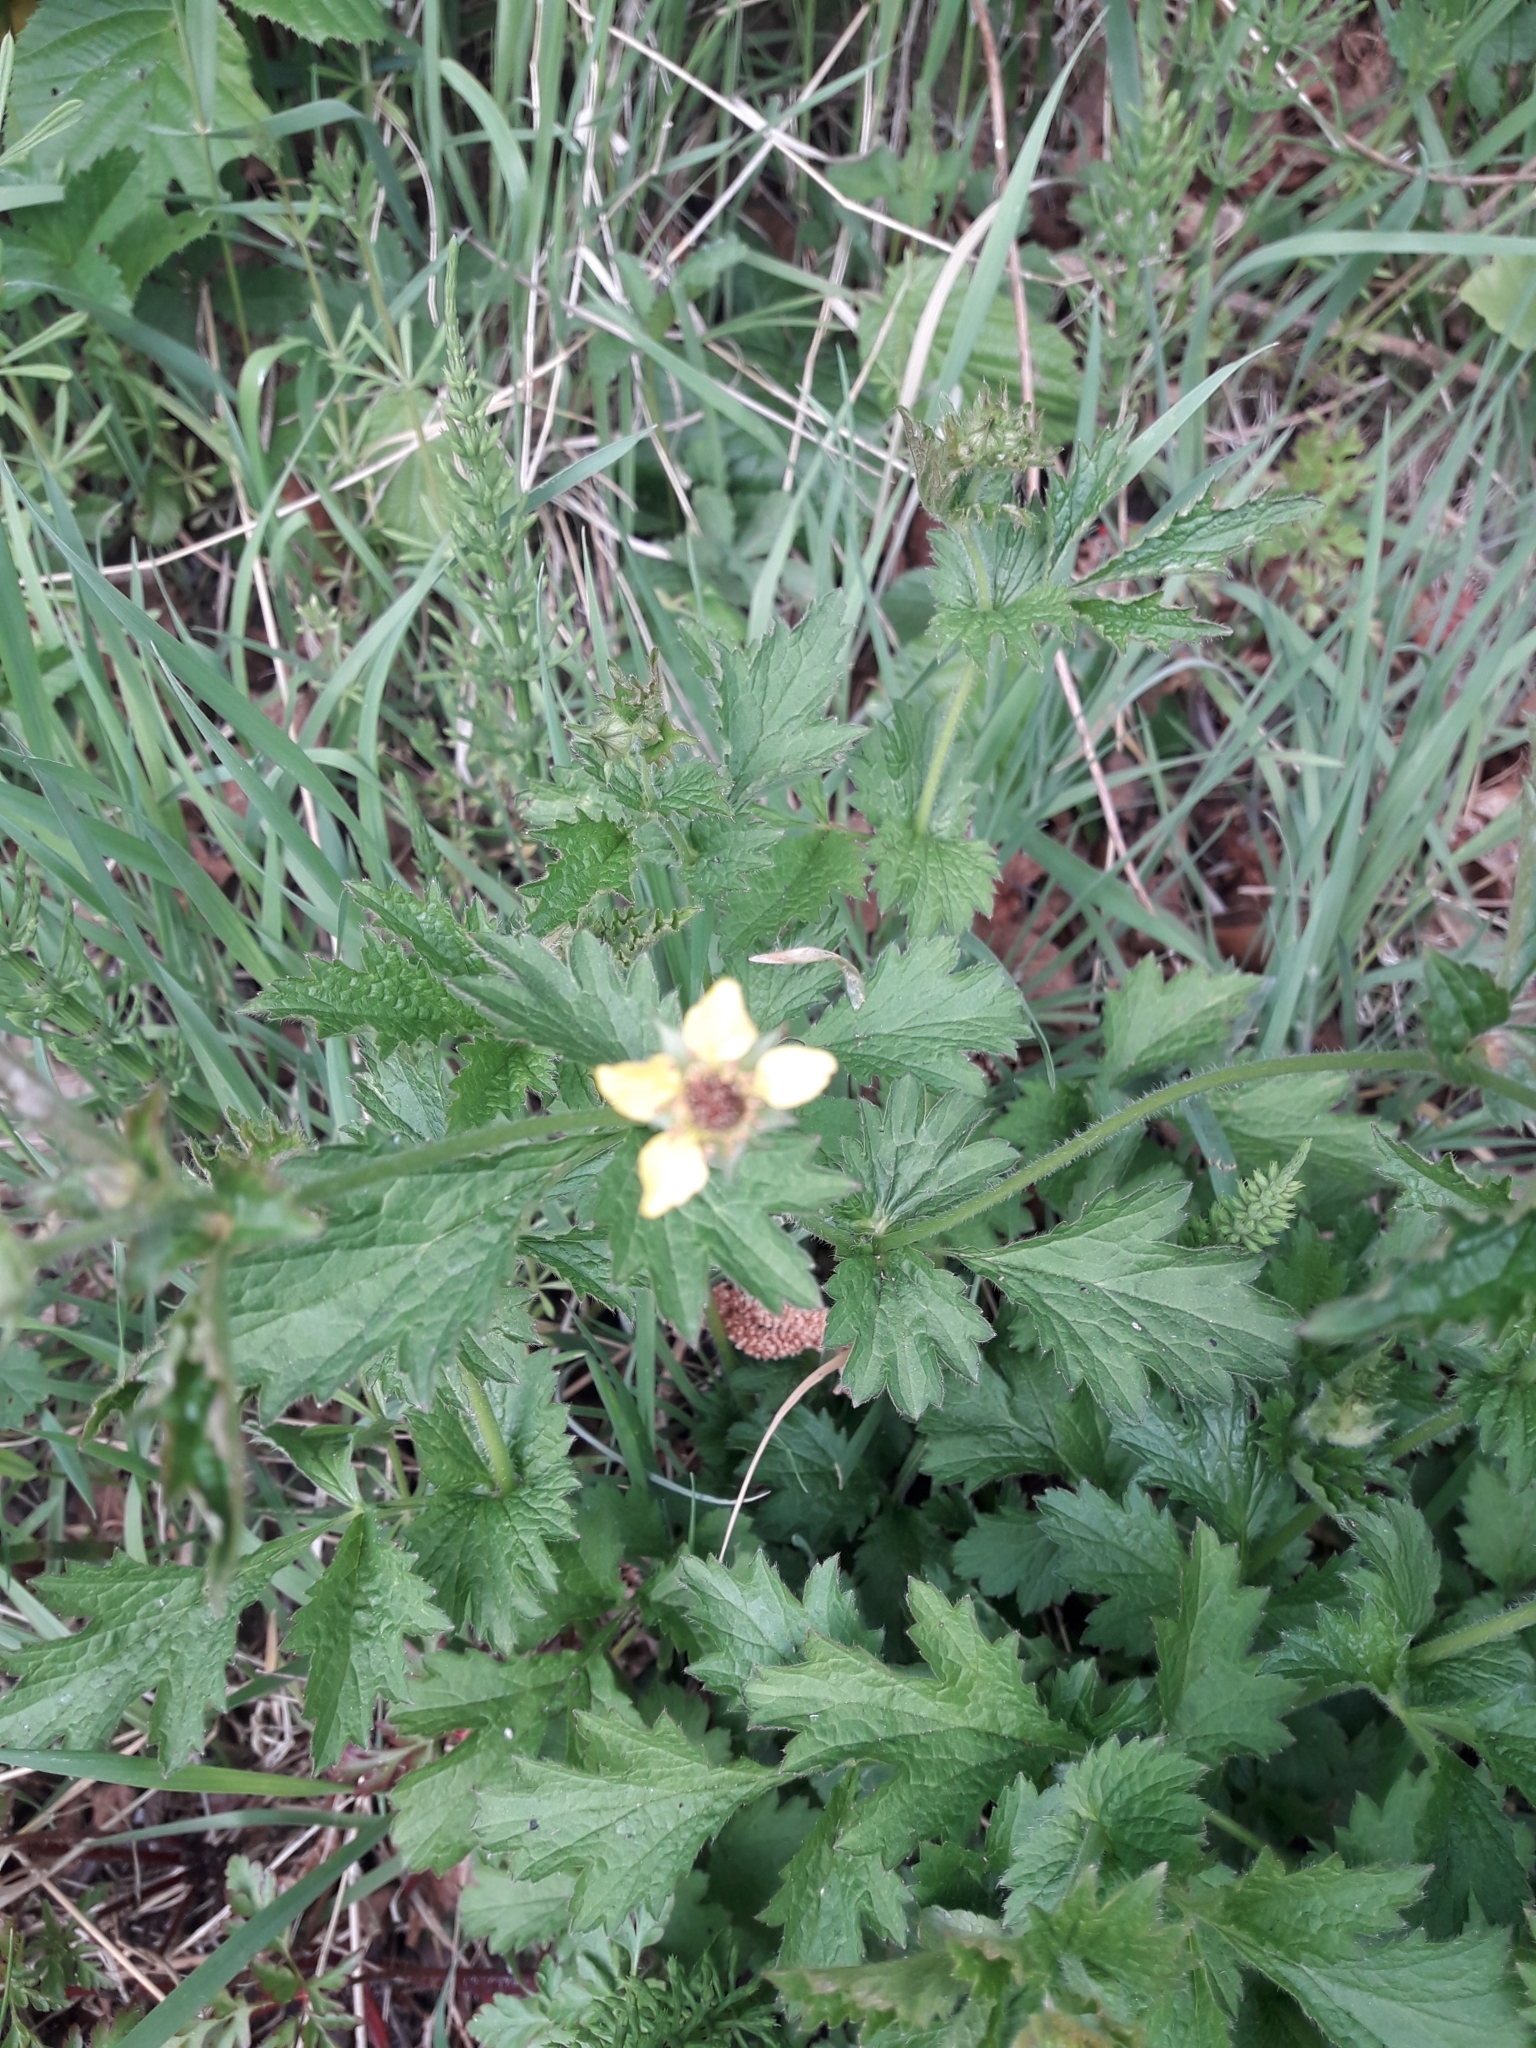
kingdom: Plantae
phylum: Tracheophyta
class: Magnoliopsida
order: Rosales
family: Rosaceae
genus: Geum
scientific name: Geum urbanum
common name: Wood avens
